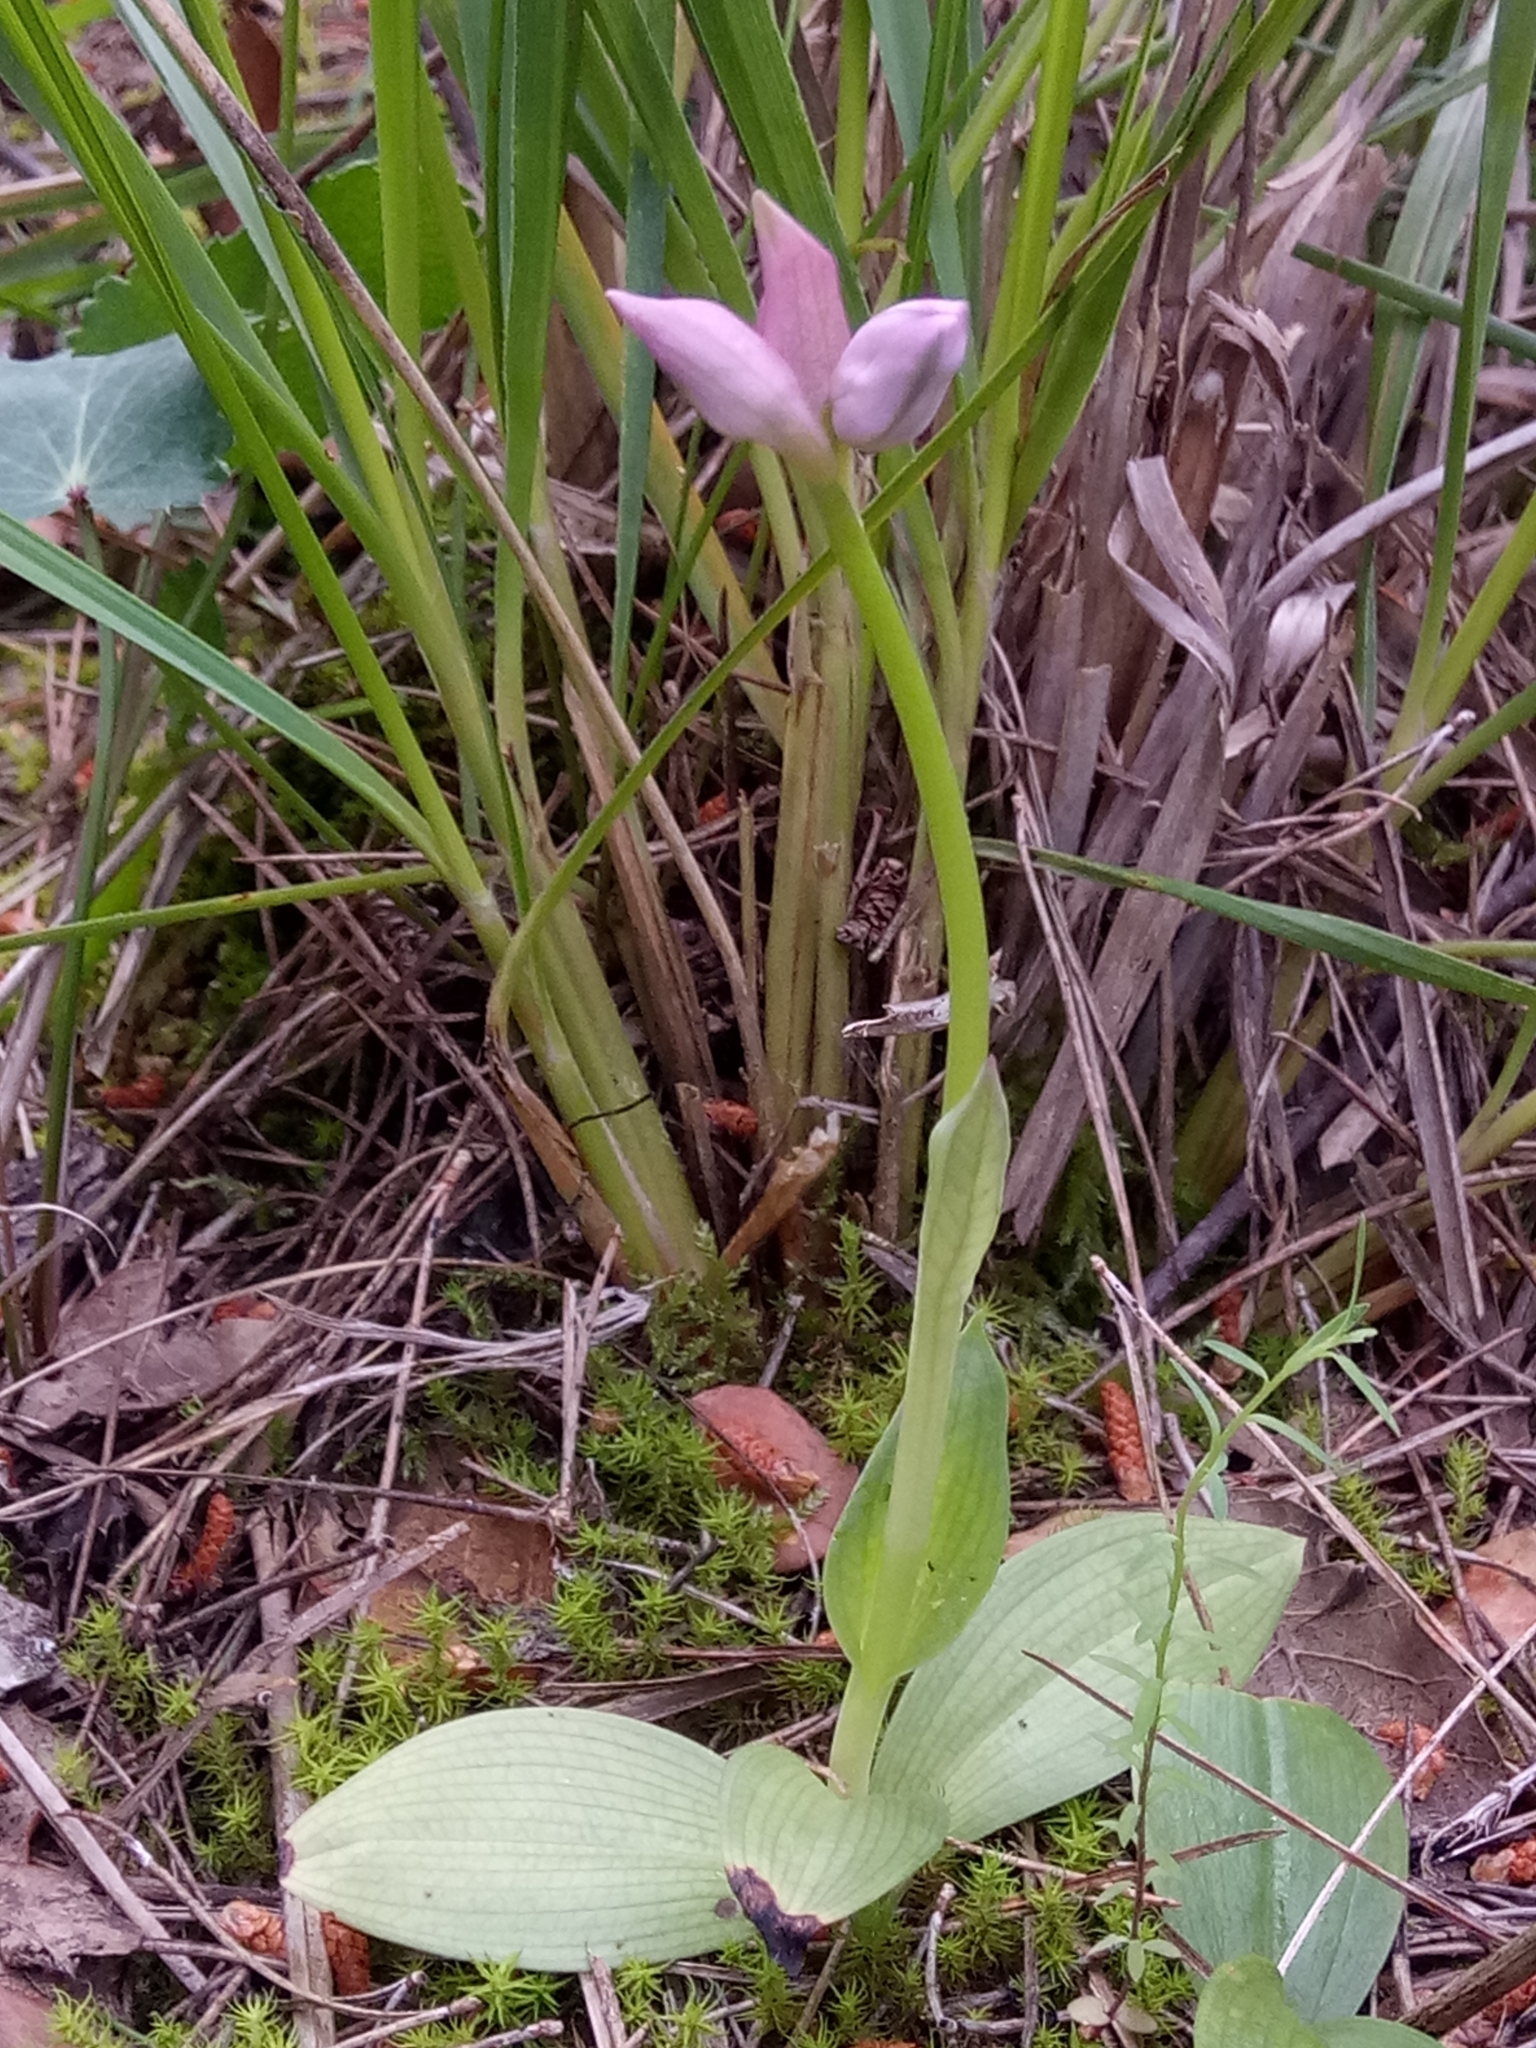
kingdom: Plantae
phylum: Tracheophyta
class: Liliopsida
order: Asparagales
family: Orchidaceae
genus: Ophrys
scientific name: Ophrys tenthredinifera
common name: Sawfly orchid
